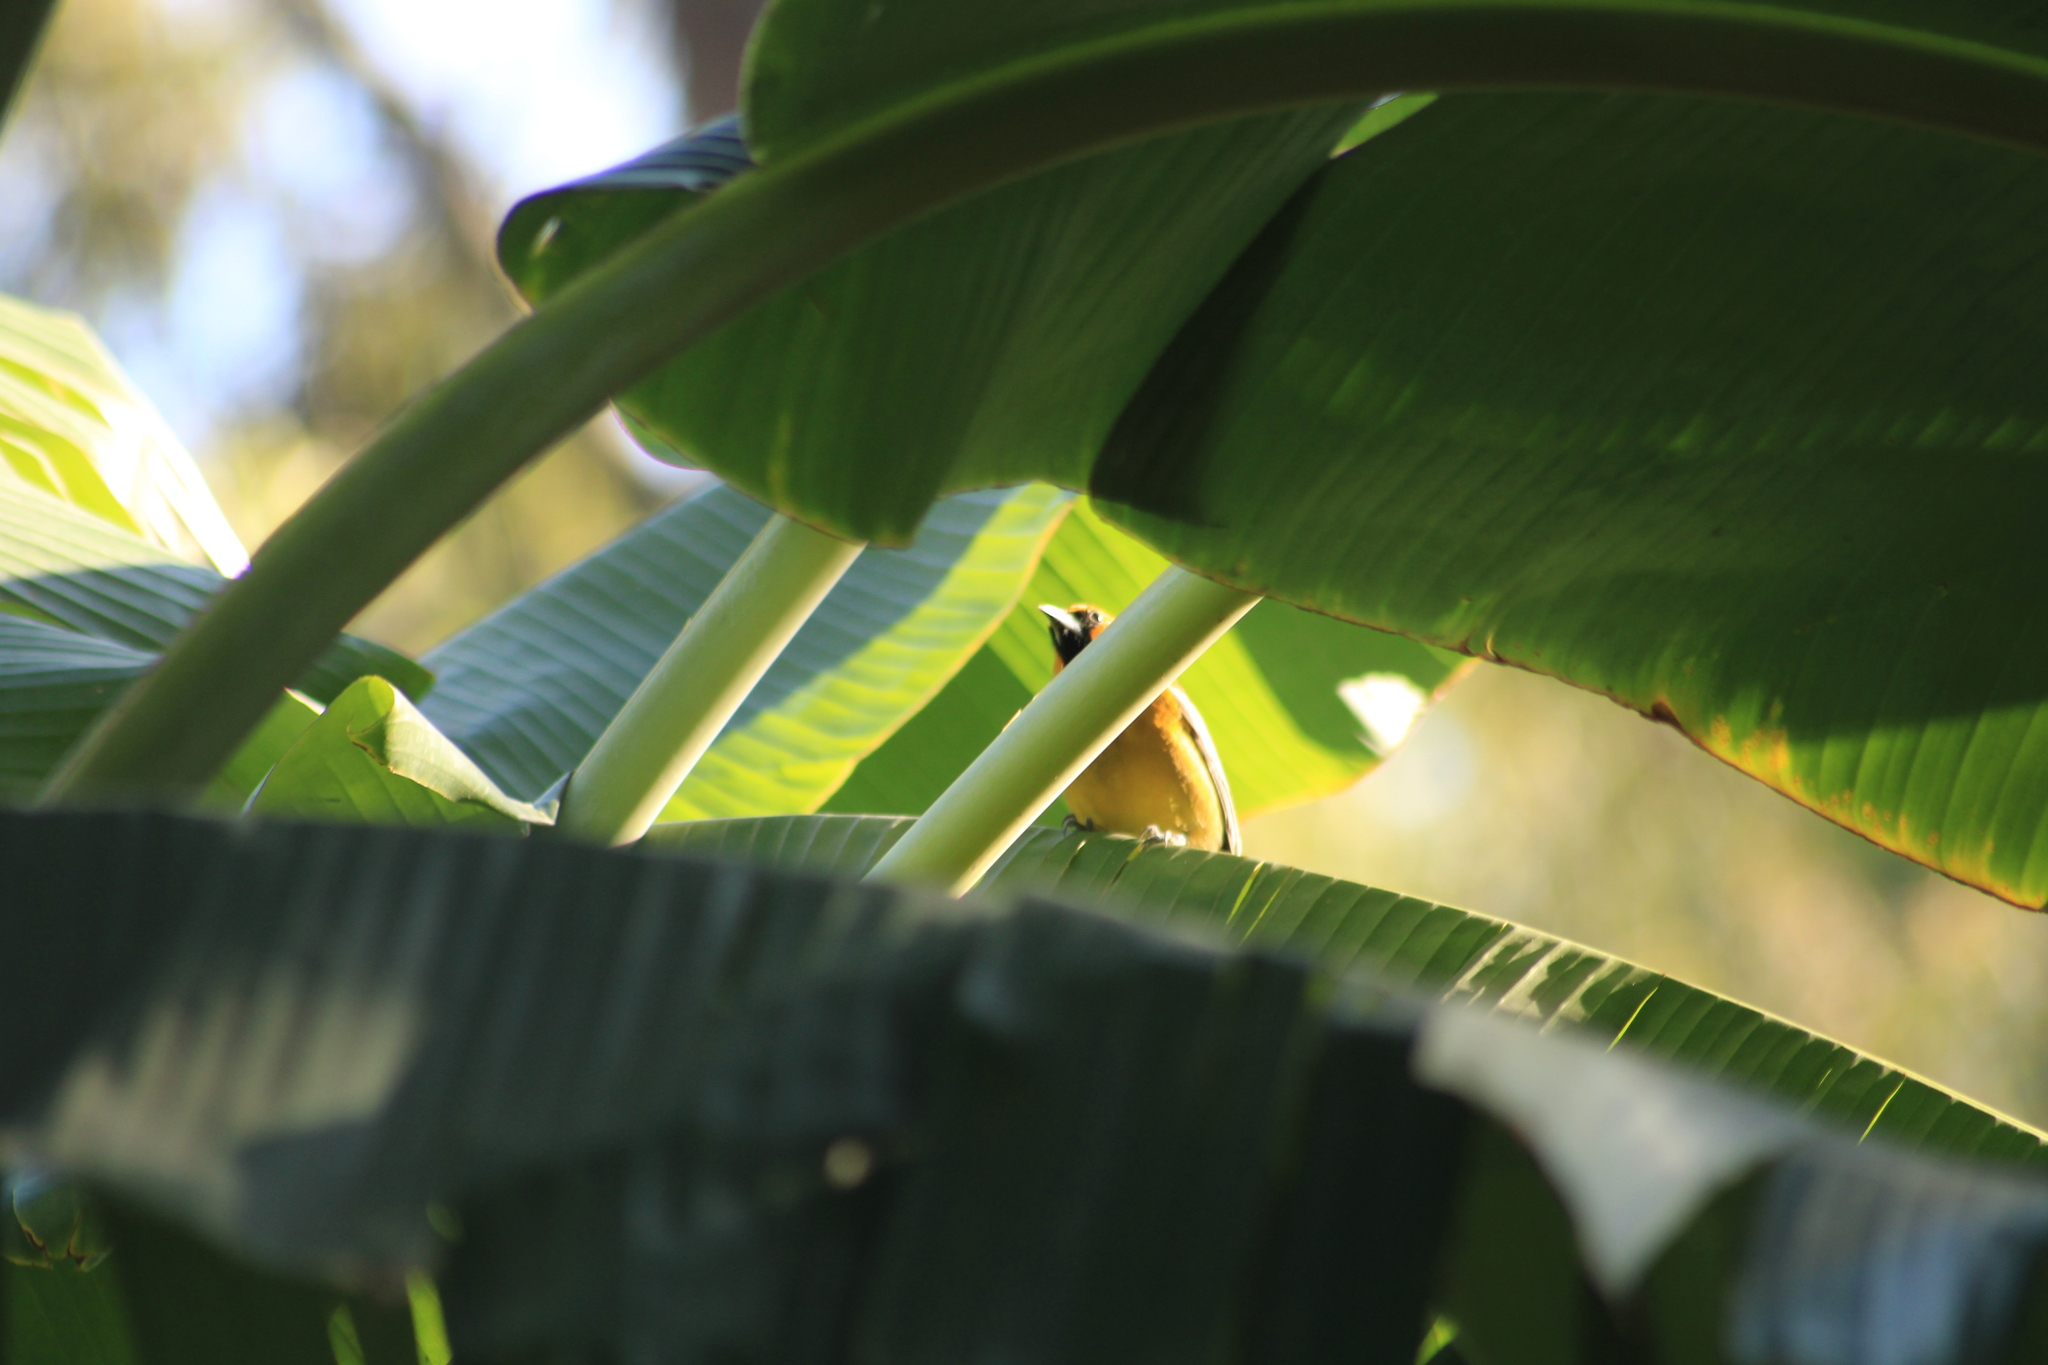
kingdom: Animalia
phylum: Chordata
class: Aves
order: Passeriformes
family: Icteridae
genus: Icterus
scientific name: Icterus pustulatus
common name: Streak-backed oriole
